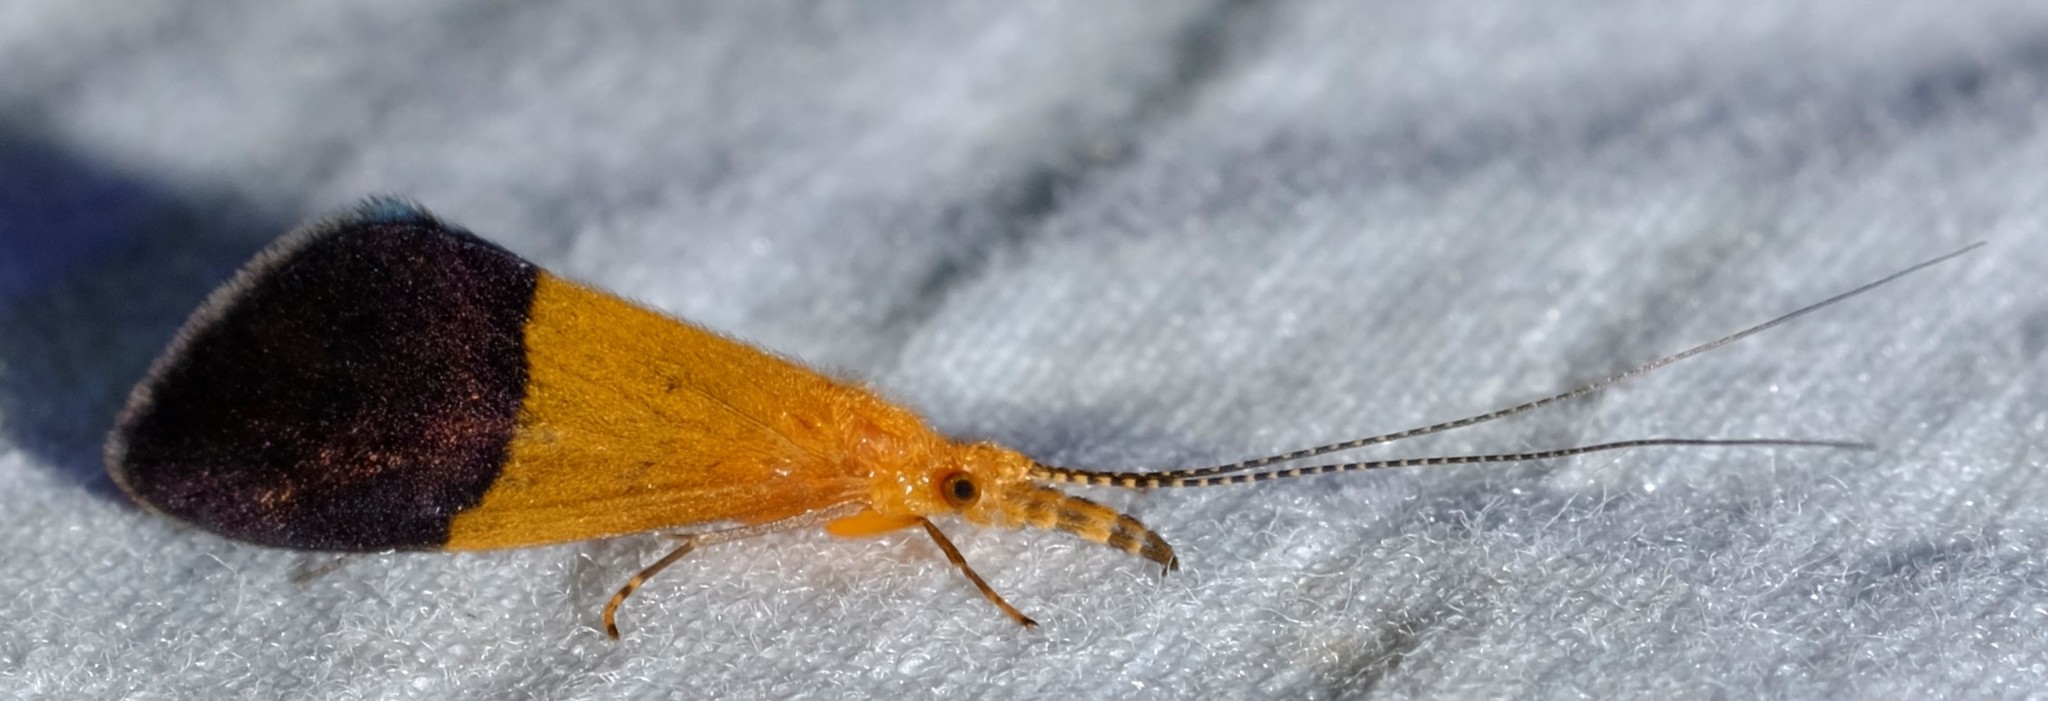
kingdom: Animalia
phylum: Arthropoda
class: Insecta
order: Trichoptera
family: Calamoceratidae
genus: Anisocentropus
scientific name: Anisocentropus bicoloratus
